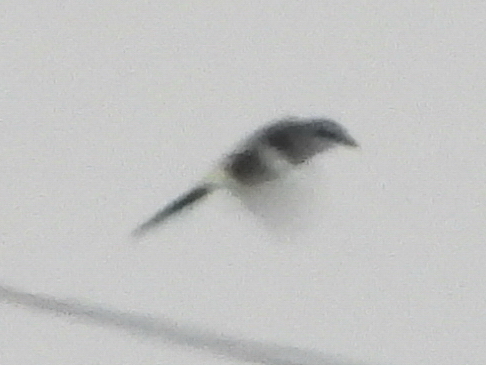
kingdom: Animalia
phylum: Chordata
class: Aves
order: Passeriformes
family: Laniidae
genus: Lanius
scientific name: Lanius excubitor
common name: Great grey shrike
